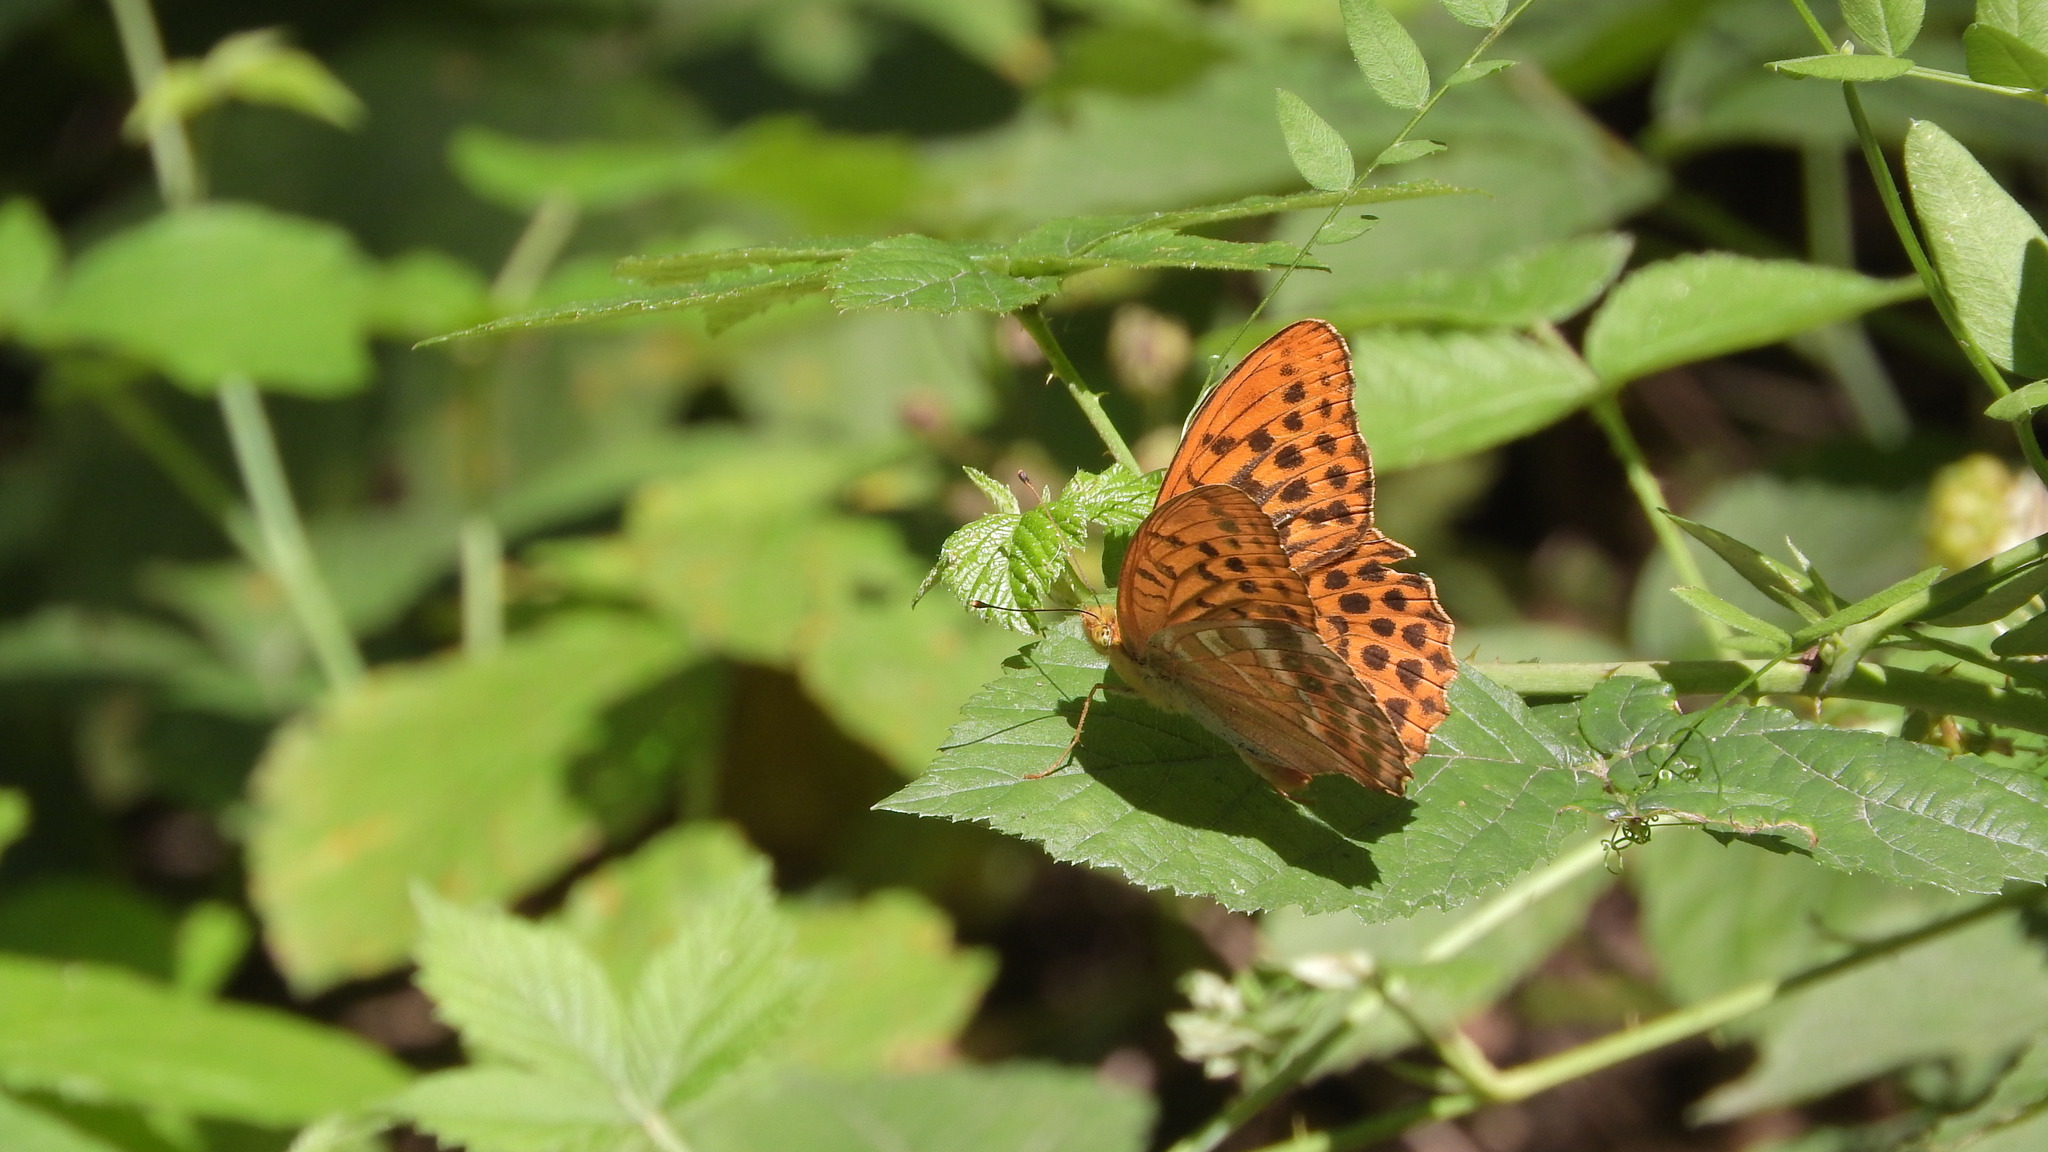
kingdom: Animalia
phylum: Arthropoda
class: Insecta
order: Lepidoptera
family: Nymphalidae
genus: Argynnis
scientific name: Argynnis paphia
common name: Silver-washed fritillary
